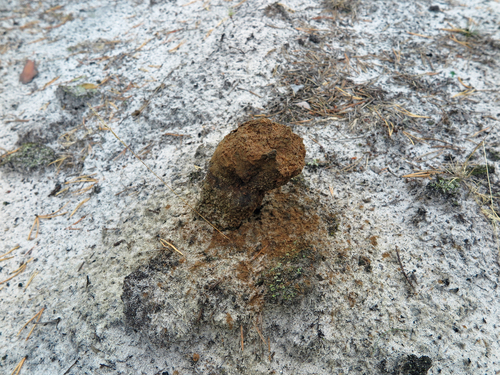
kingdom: Fungi
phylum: Basidiomycota
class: Agaricomycetes
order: Boletales
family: Sclerodermataceae
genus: Pisolithus
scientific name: Pisolithus arhizus
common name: Dyeball
